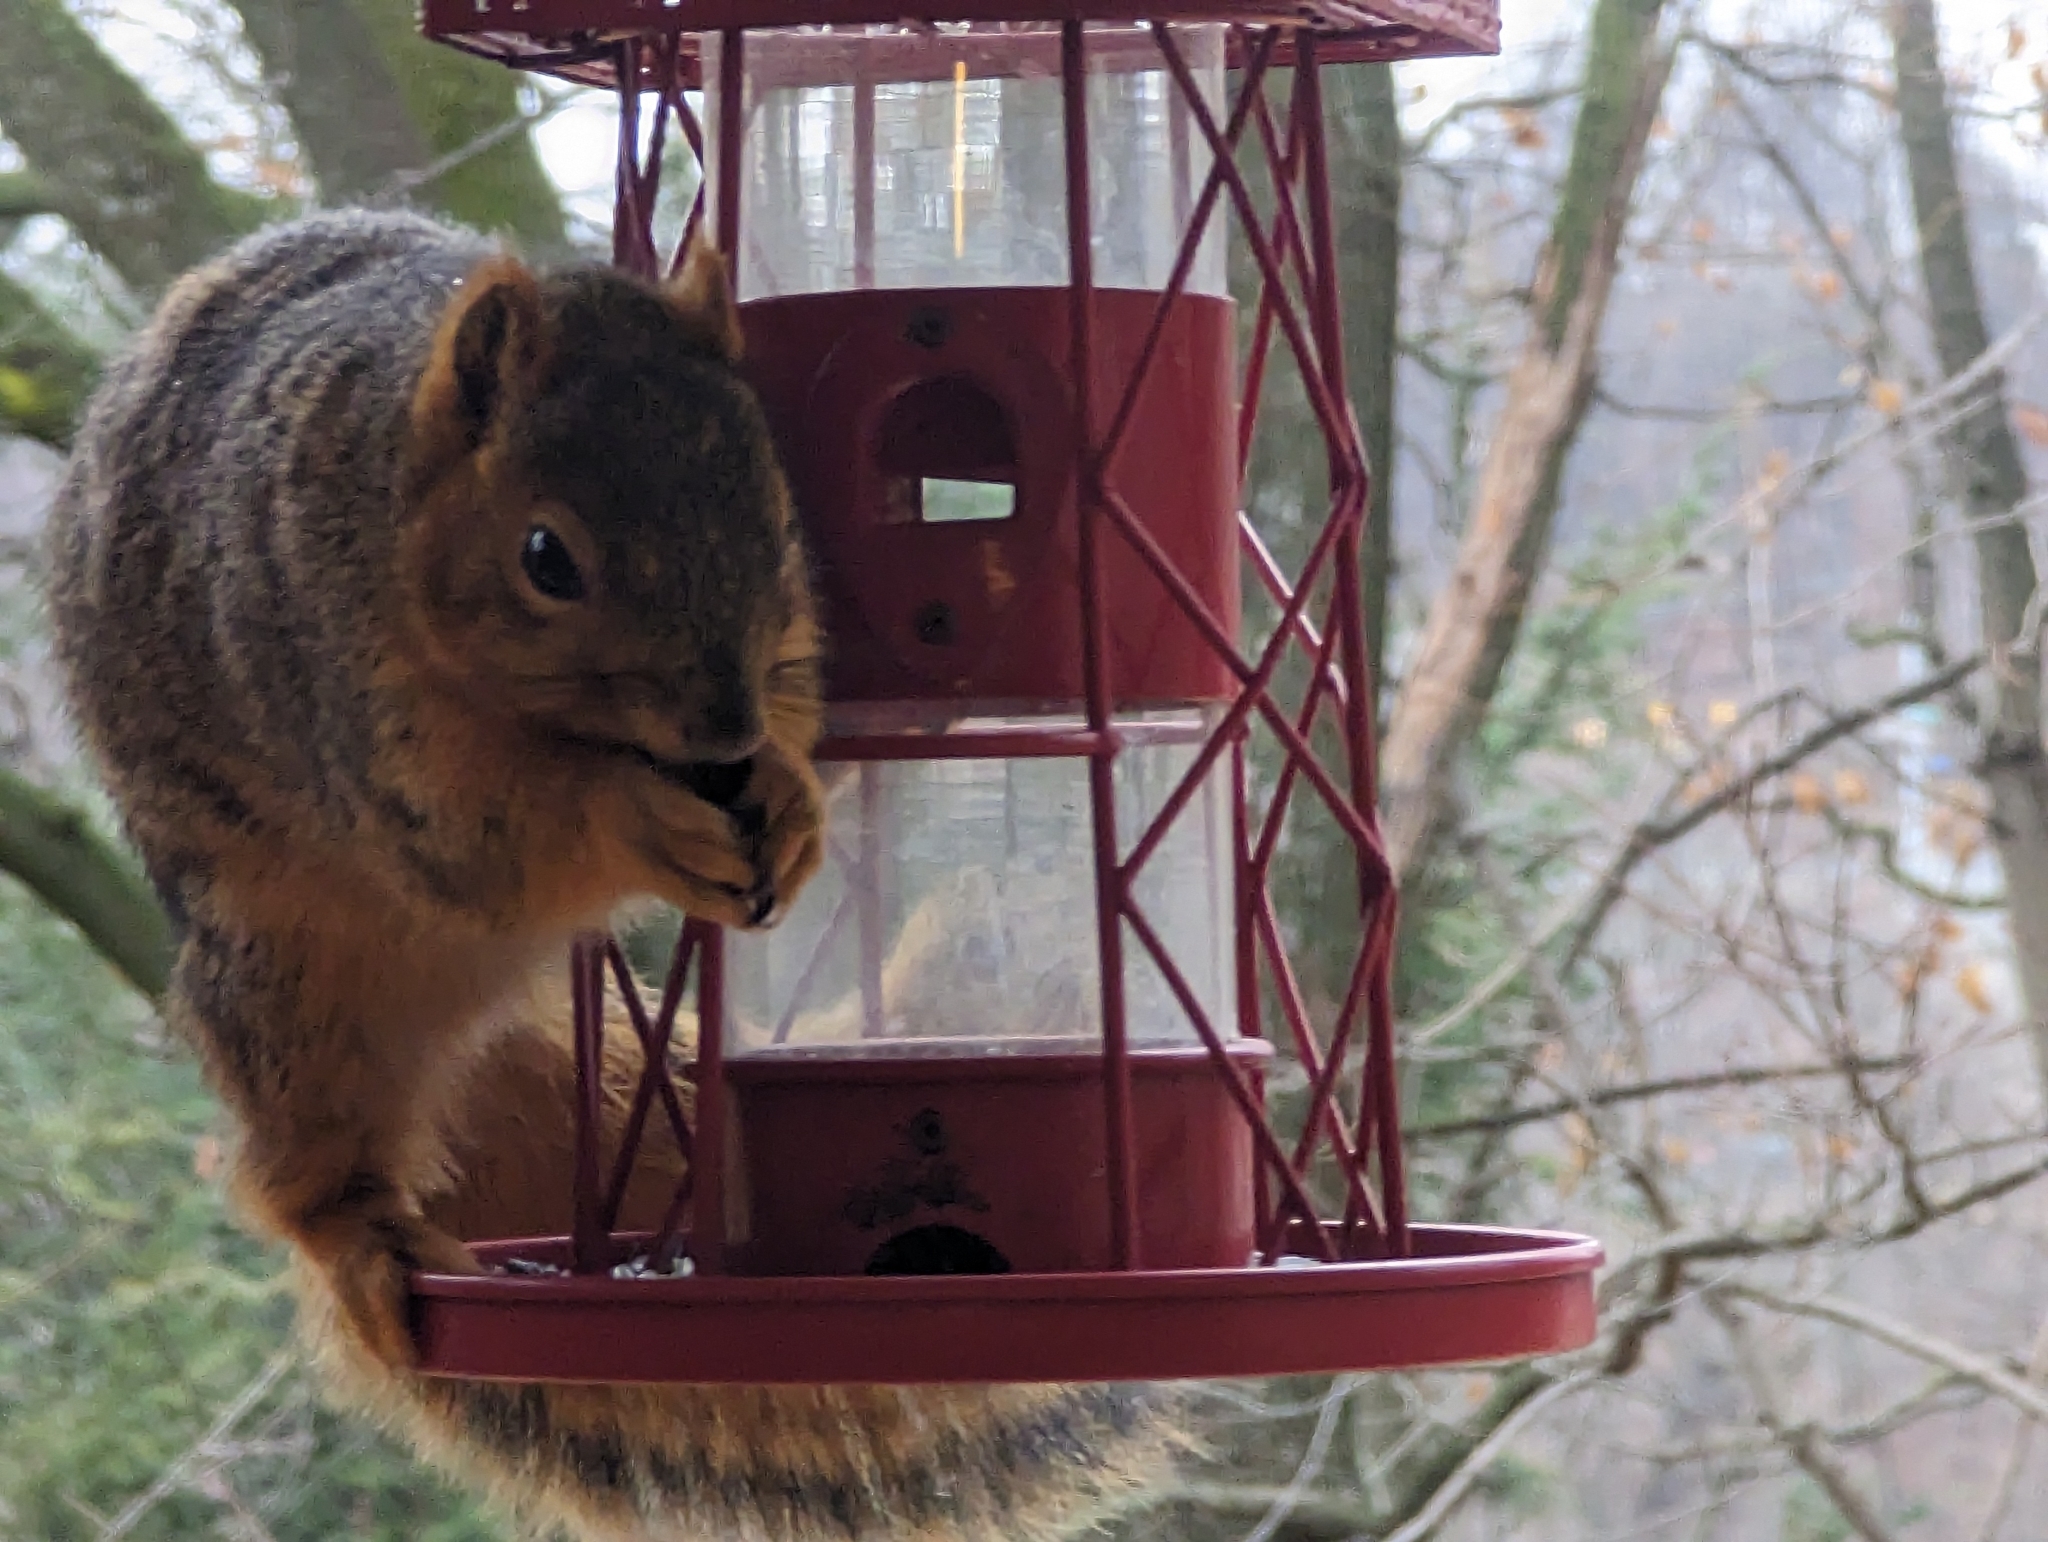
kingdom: Animalia
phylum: Chordata
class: Mammalia
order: Rodentia
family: Sciuridae
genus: Sciurus
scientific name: Sciurus niger
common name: Fox squirrel
